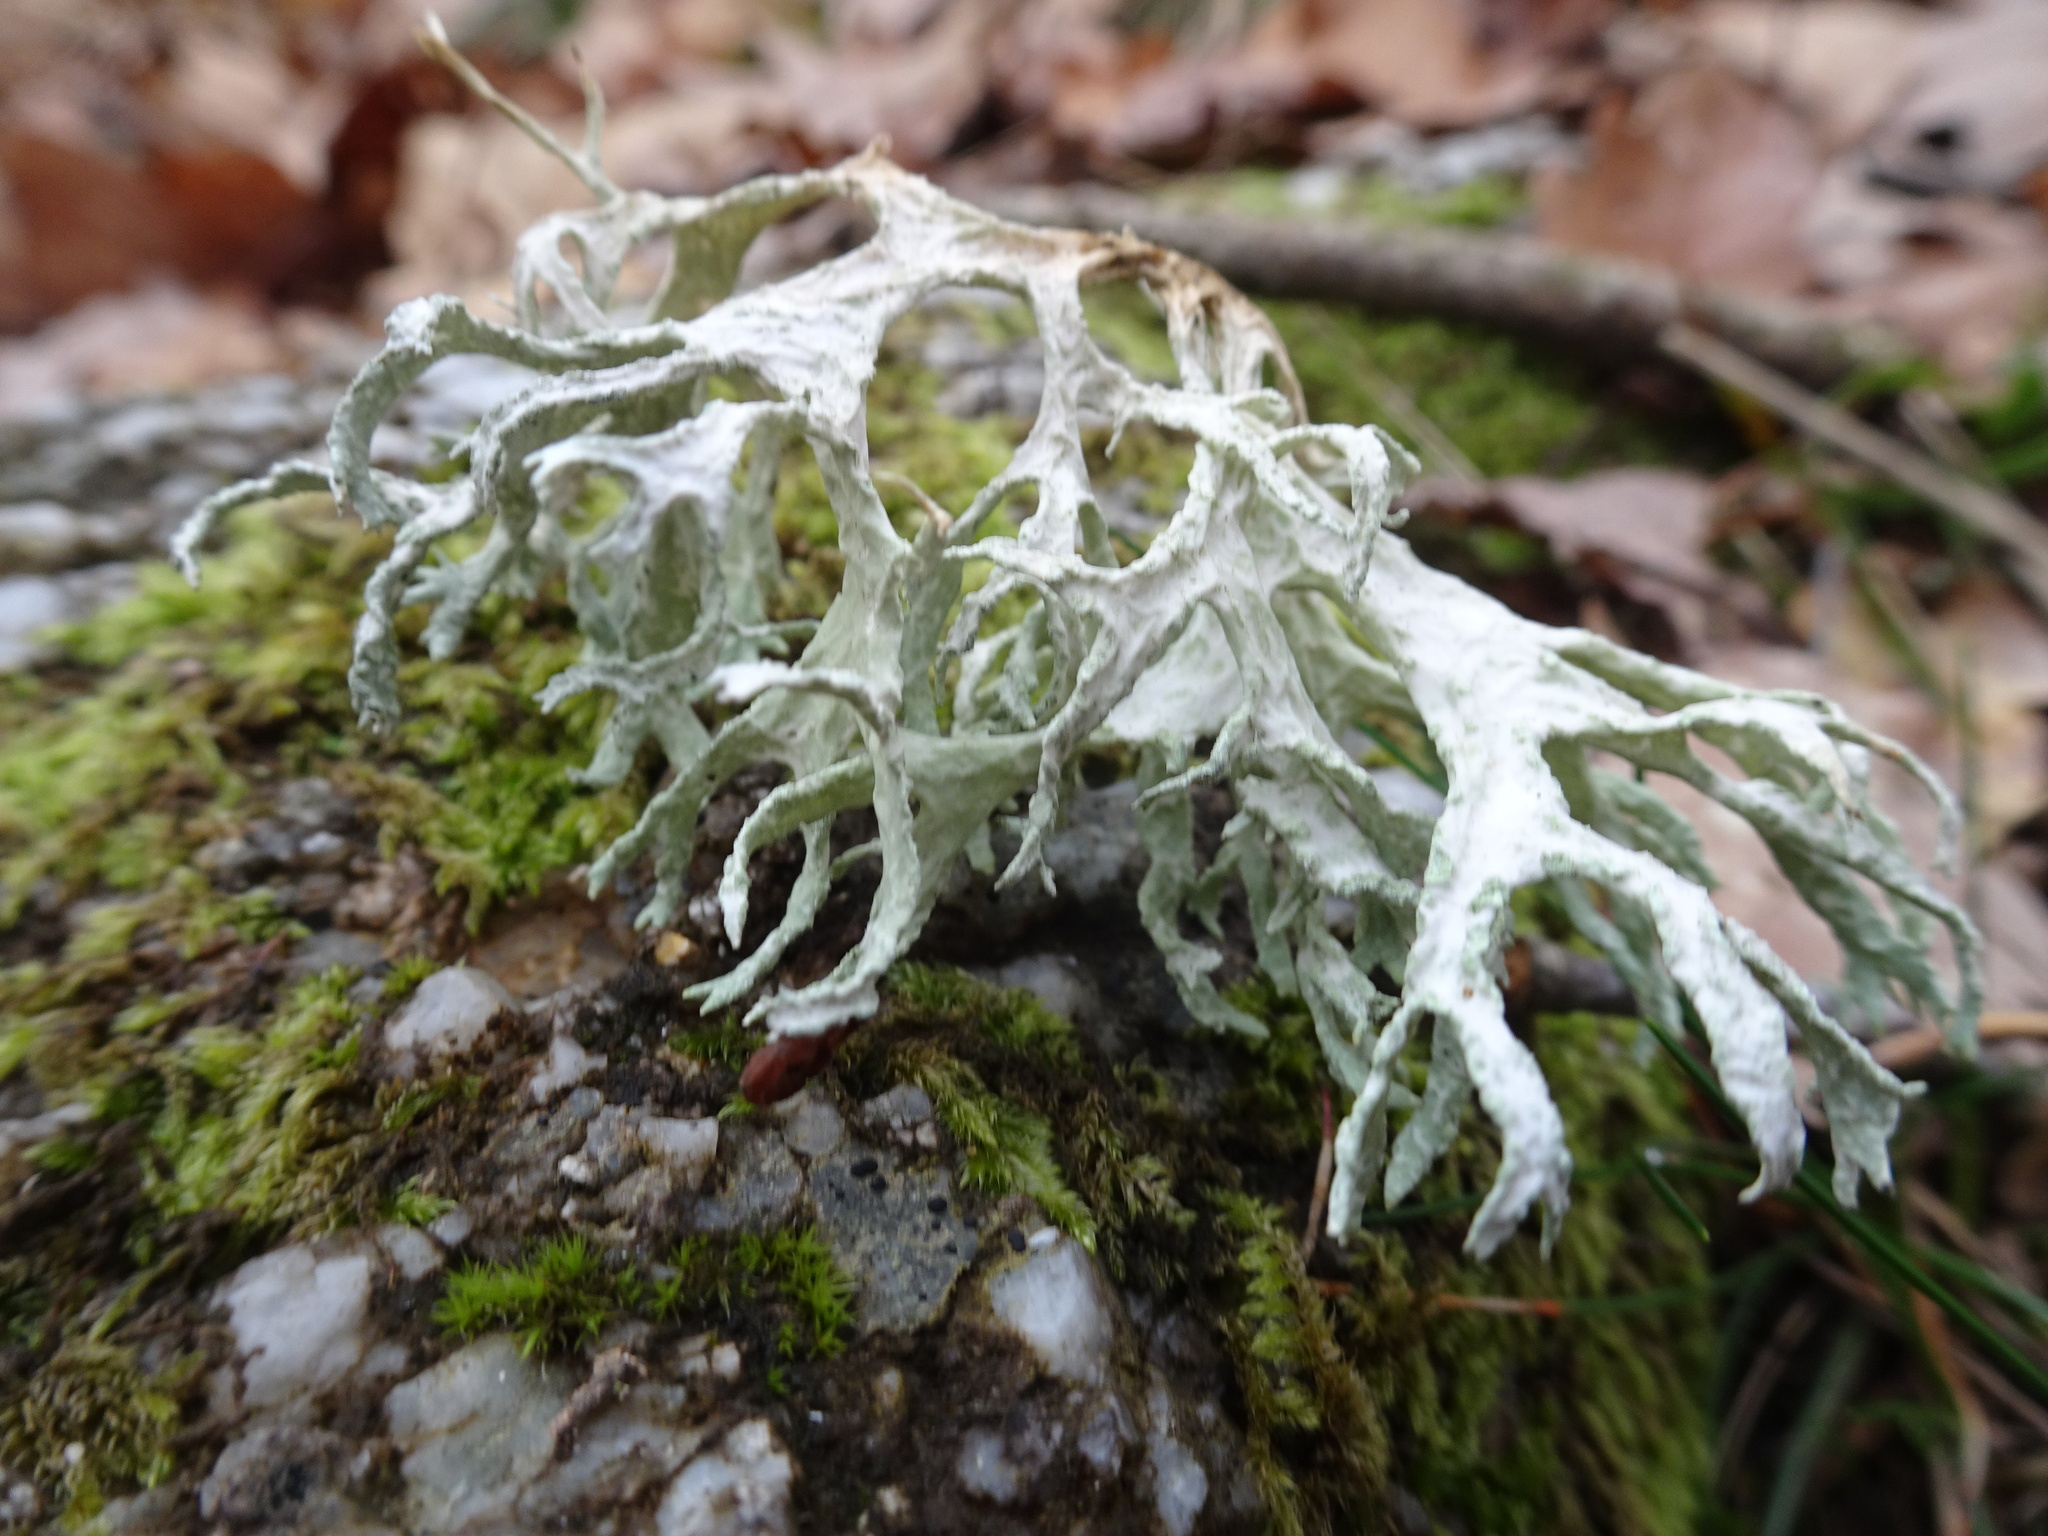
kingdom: Fungi
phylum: Ascomycota
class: Lecanoromycetes
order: Lecanorales
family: Parmeliaceae
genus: Evernia
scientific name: Evernia prunastri
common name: Oak moss
